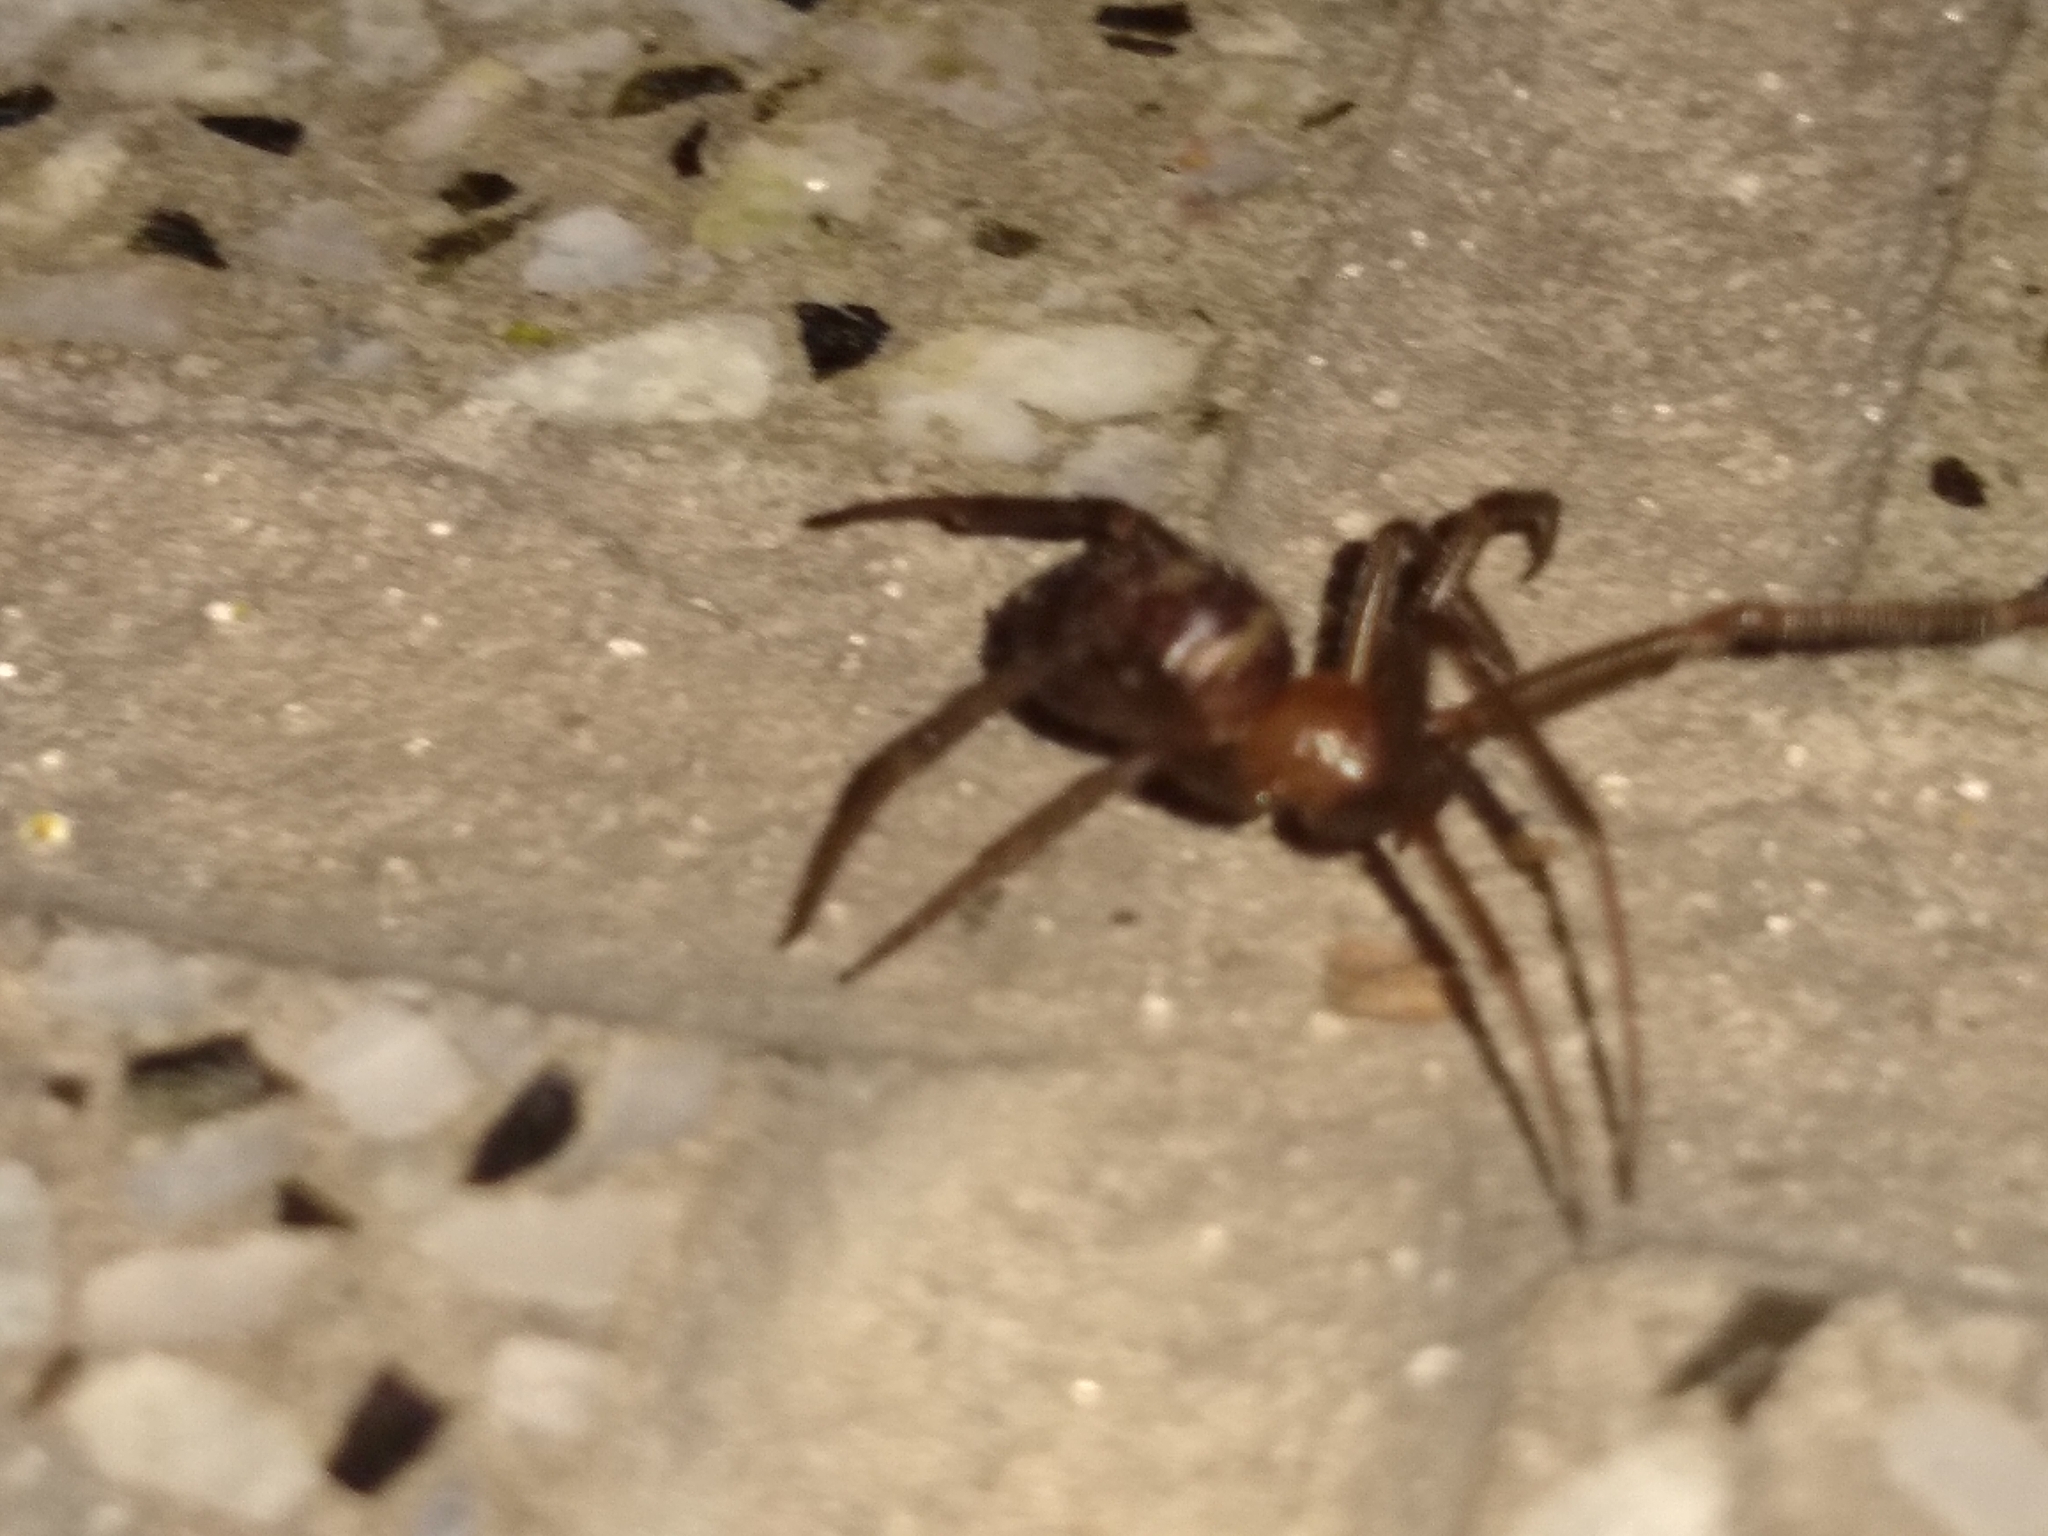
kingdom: Animalia
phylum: Arthropoda
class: Arachnida
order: Araneae
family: Theridiidae
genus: Steatoda
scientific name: Steatoda grossa
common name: False black widow
